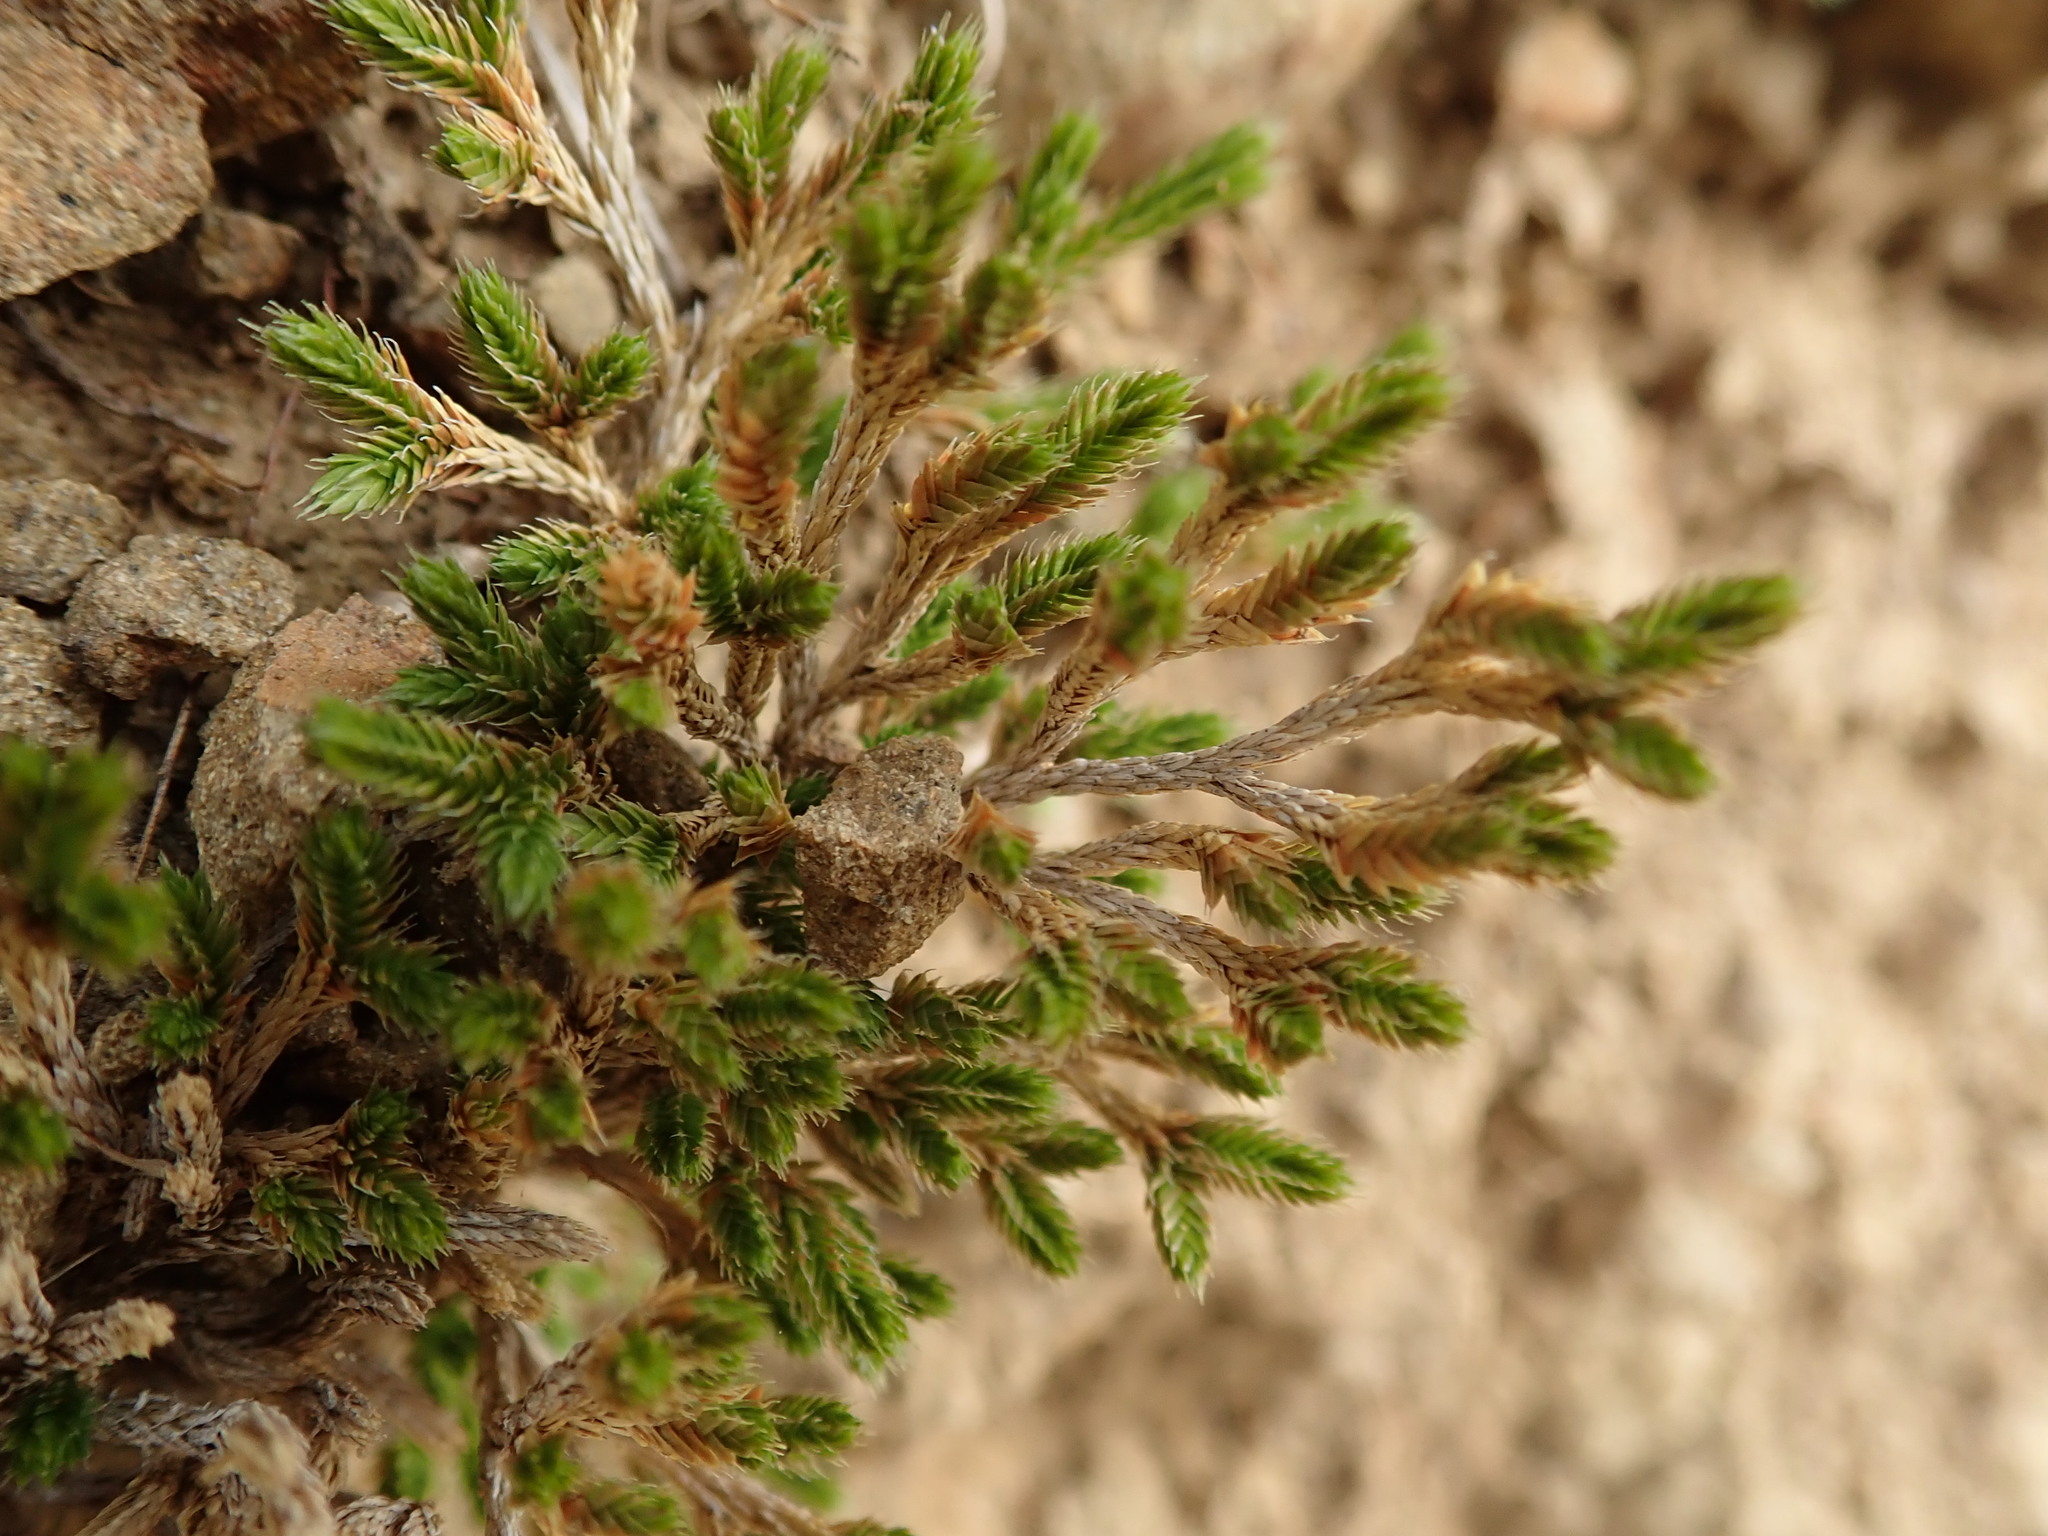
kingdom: Plantae
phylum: Tracheophyta
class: Lycopodiopsida
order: Selaginellales
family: Selaginellaceae
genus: Selaginella
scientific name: Selaginella bigelovii
